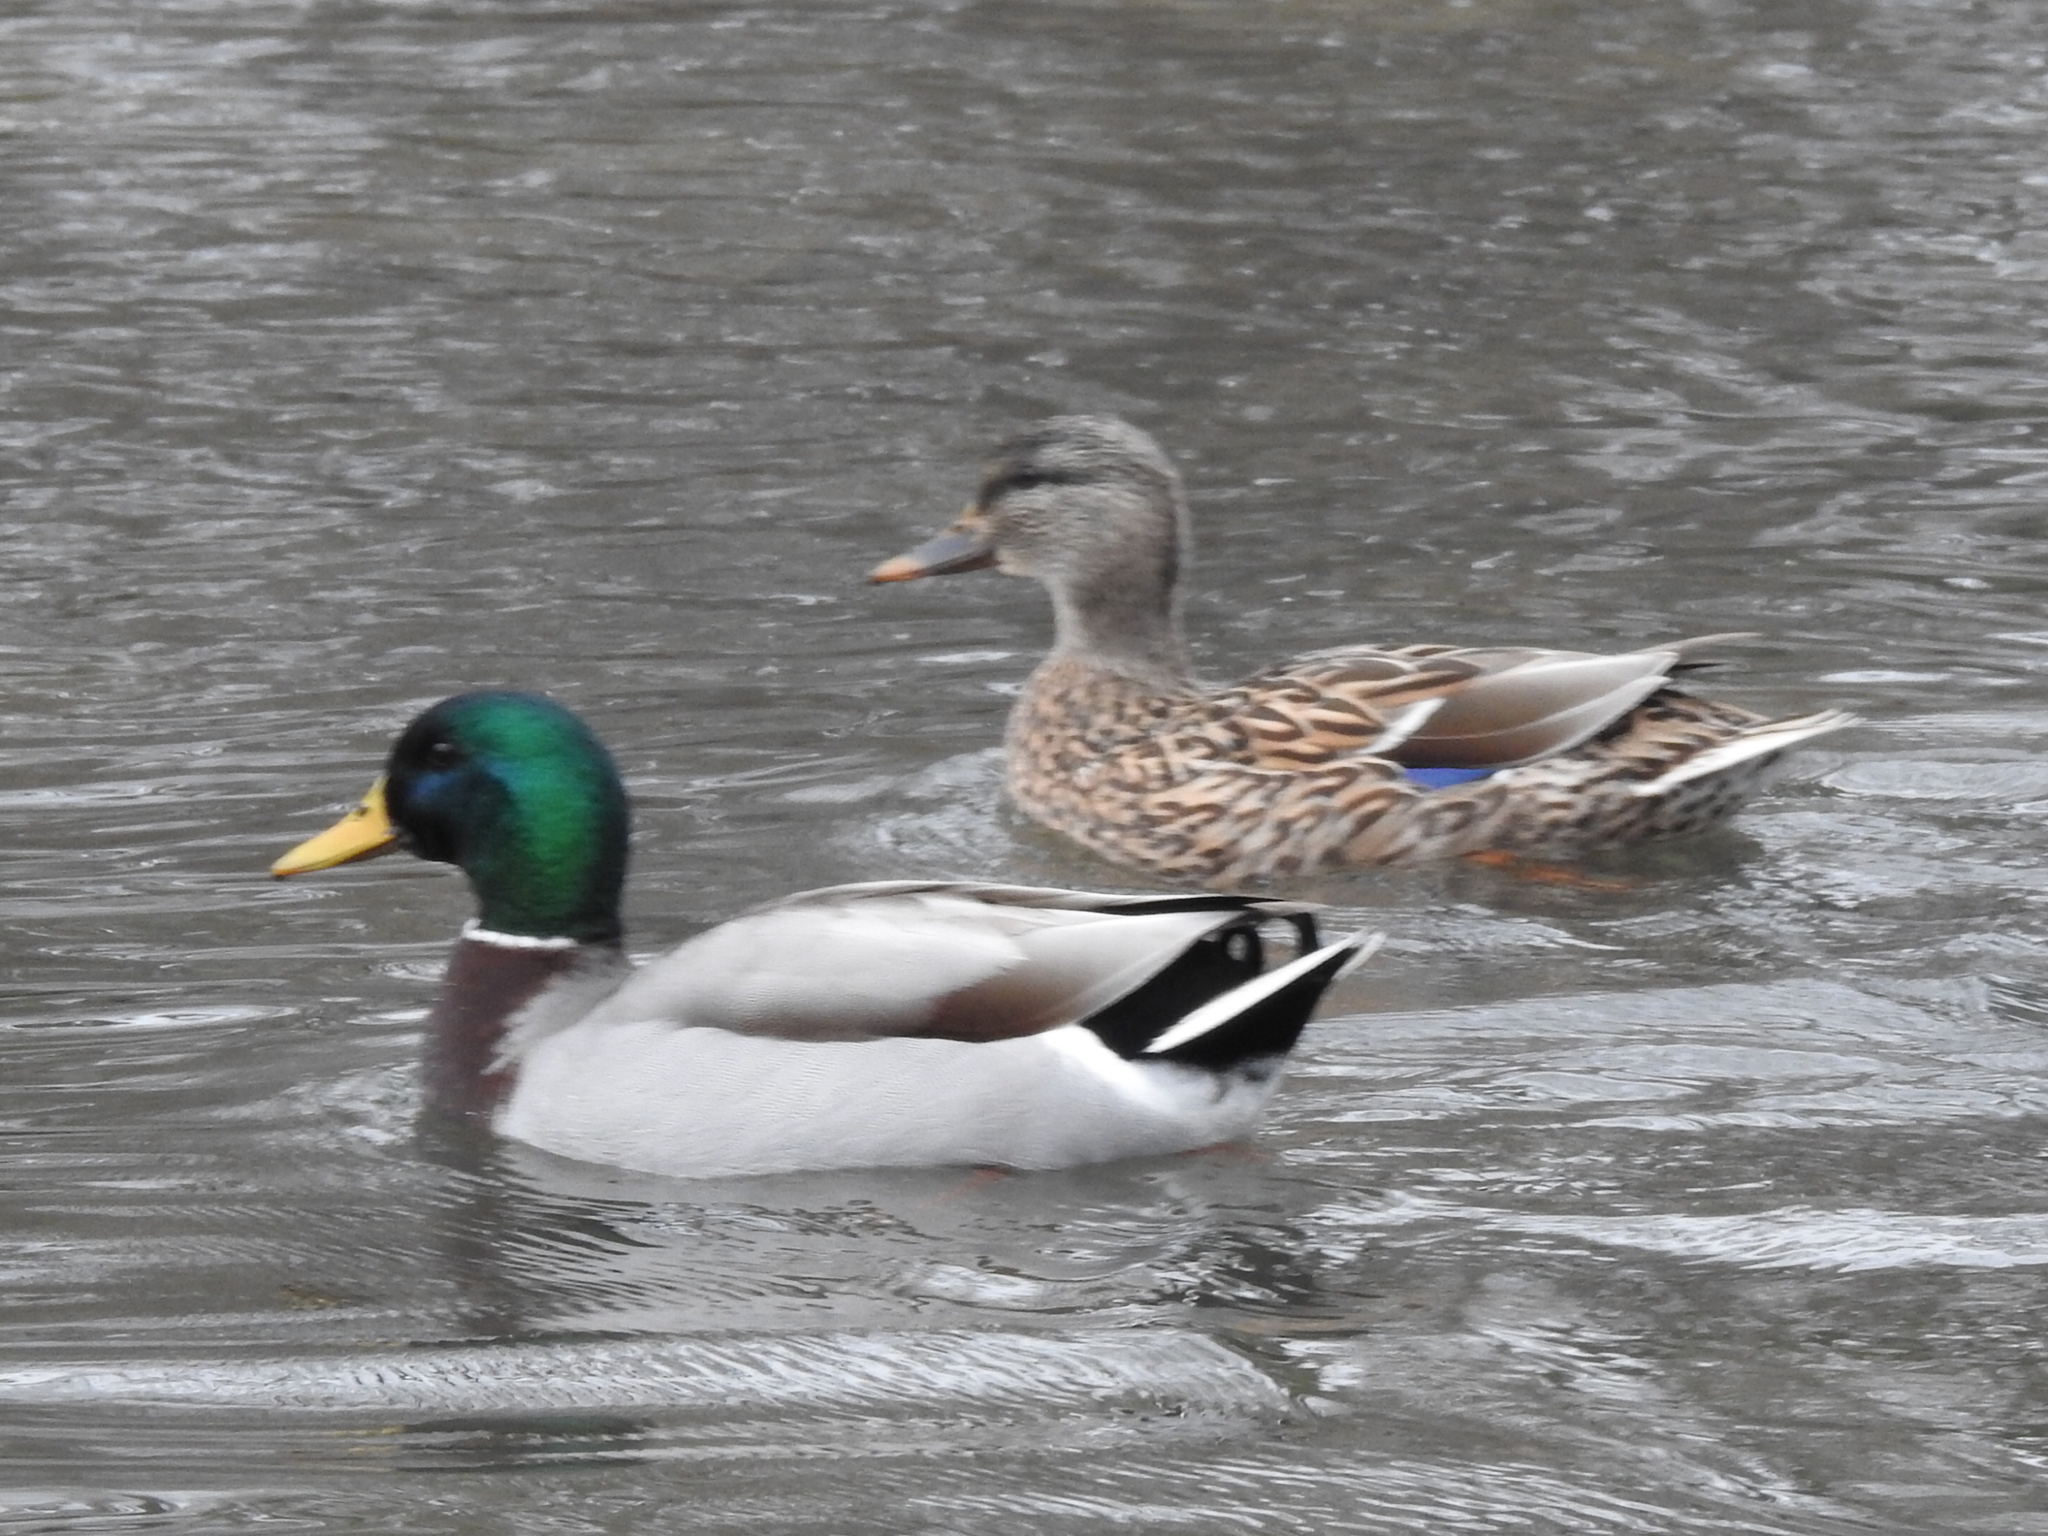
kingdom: Animalia
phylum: Chordata
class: Aves
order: Anseriformes
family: Anatidae
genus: Anas
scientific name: Anas platyrhynchos
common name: Mallard
